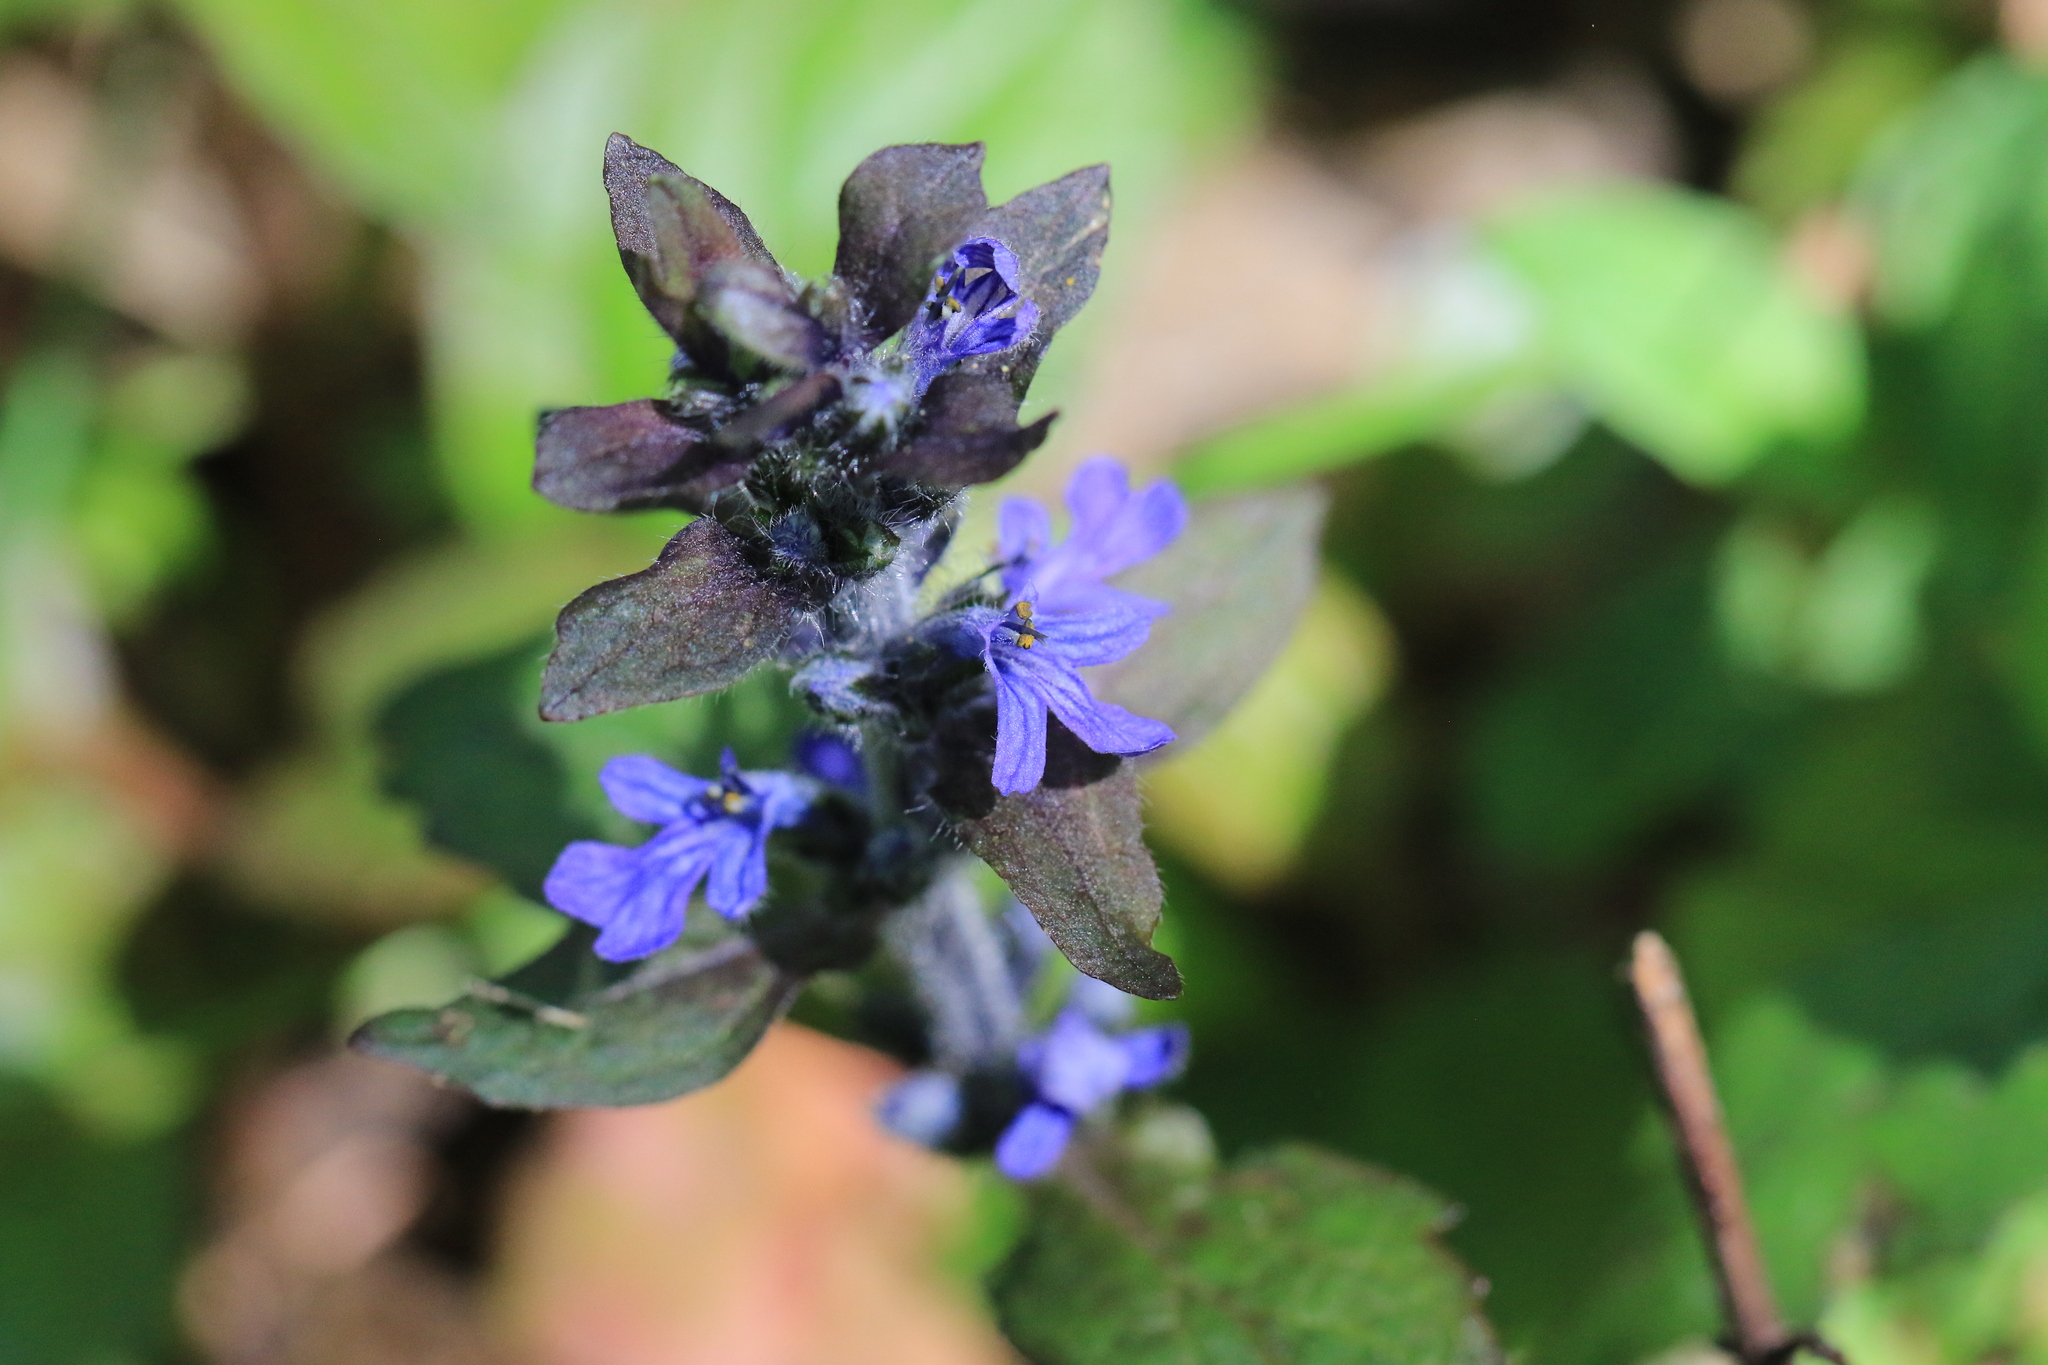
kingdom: Plantae
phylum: Tracheophyta
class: Magnoliopsida
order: Lamiales
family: Lamiaceae
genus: Ajuga
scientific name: Ajuga reptans
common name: Bugle
